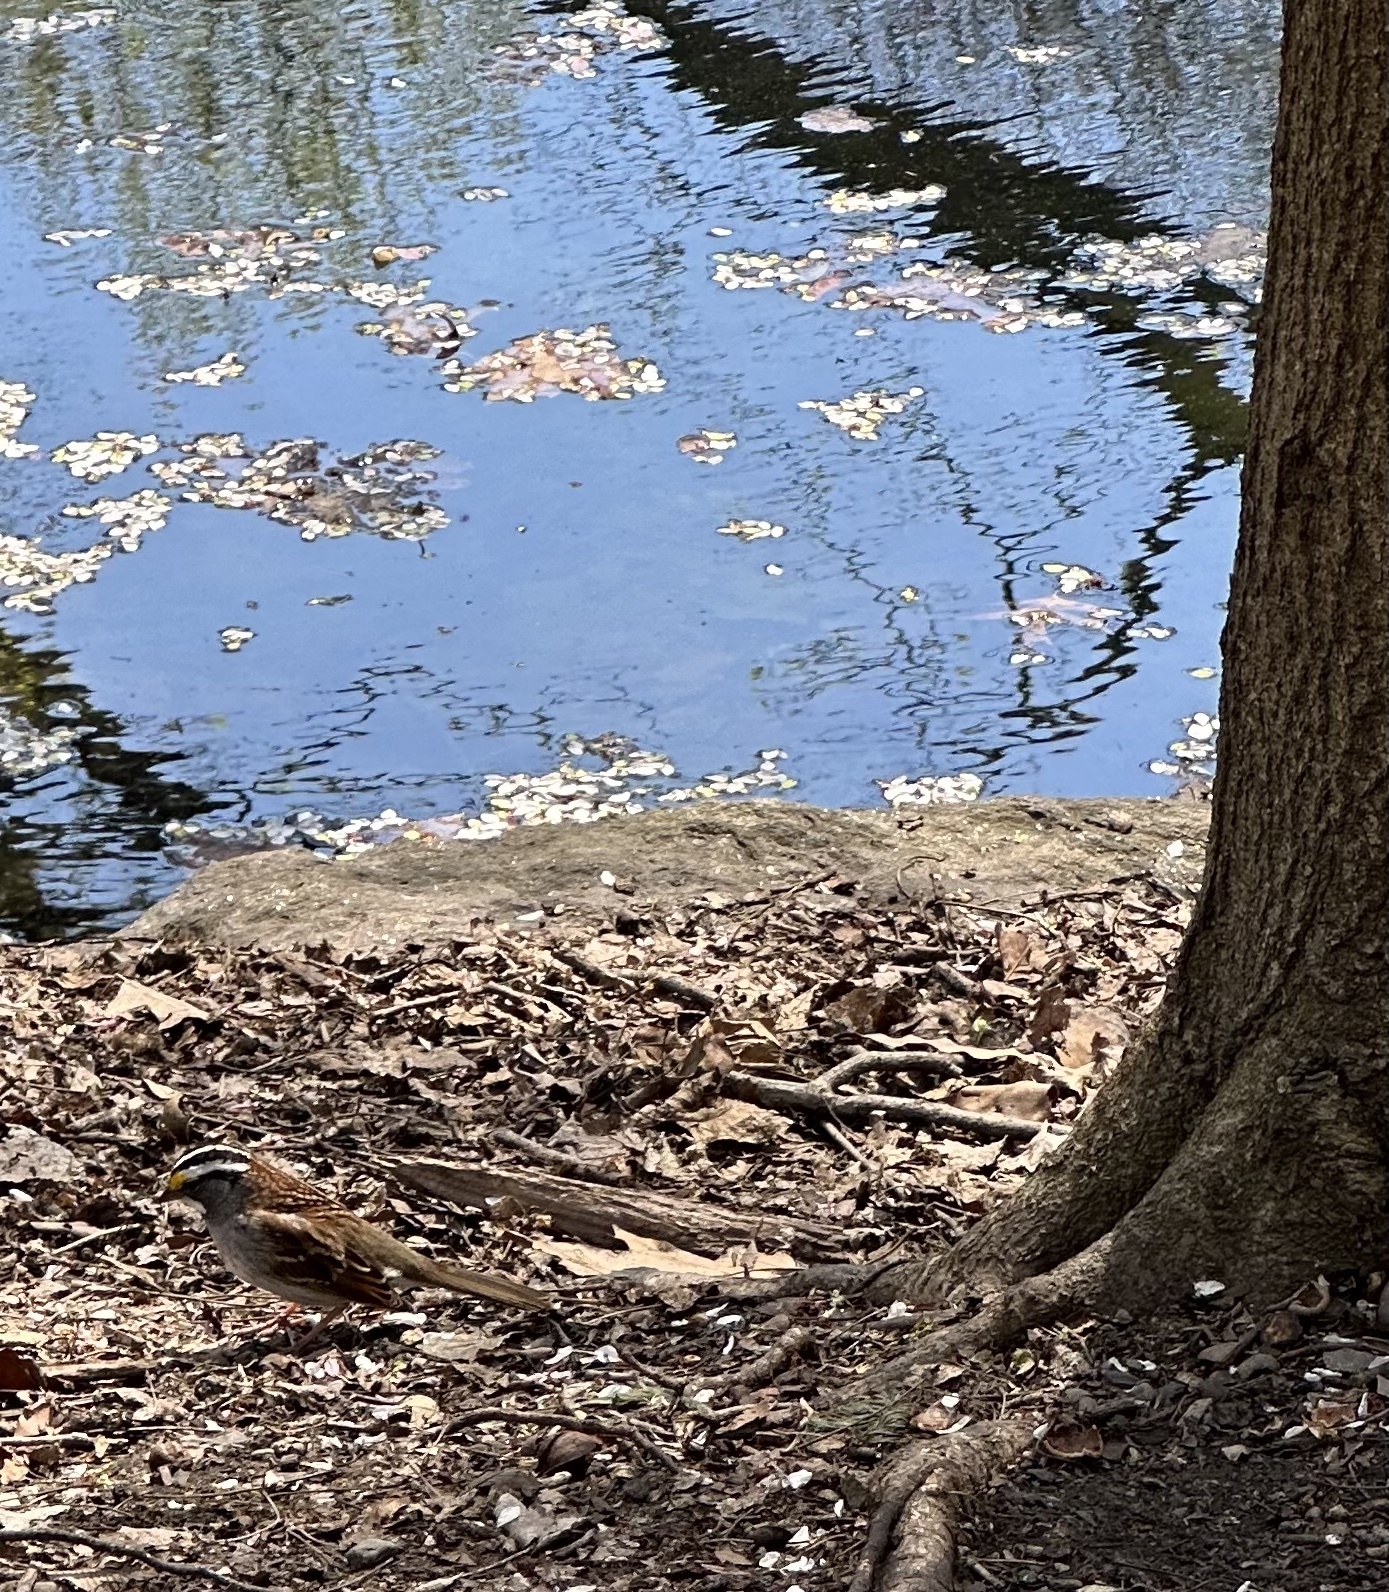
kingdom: Animalia
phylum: Chordata
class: Aves
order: Passeriformes
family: Passerellidae
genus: Zonotrichia
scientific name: Zonotrichia albicollis
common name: White-throated sparrow
